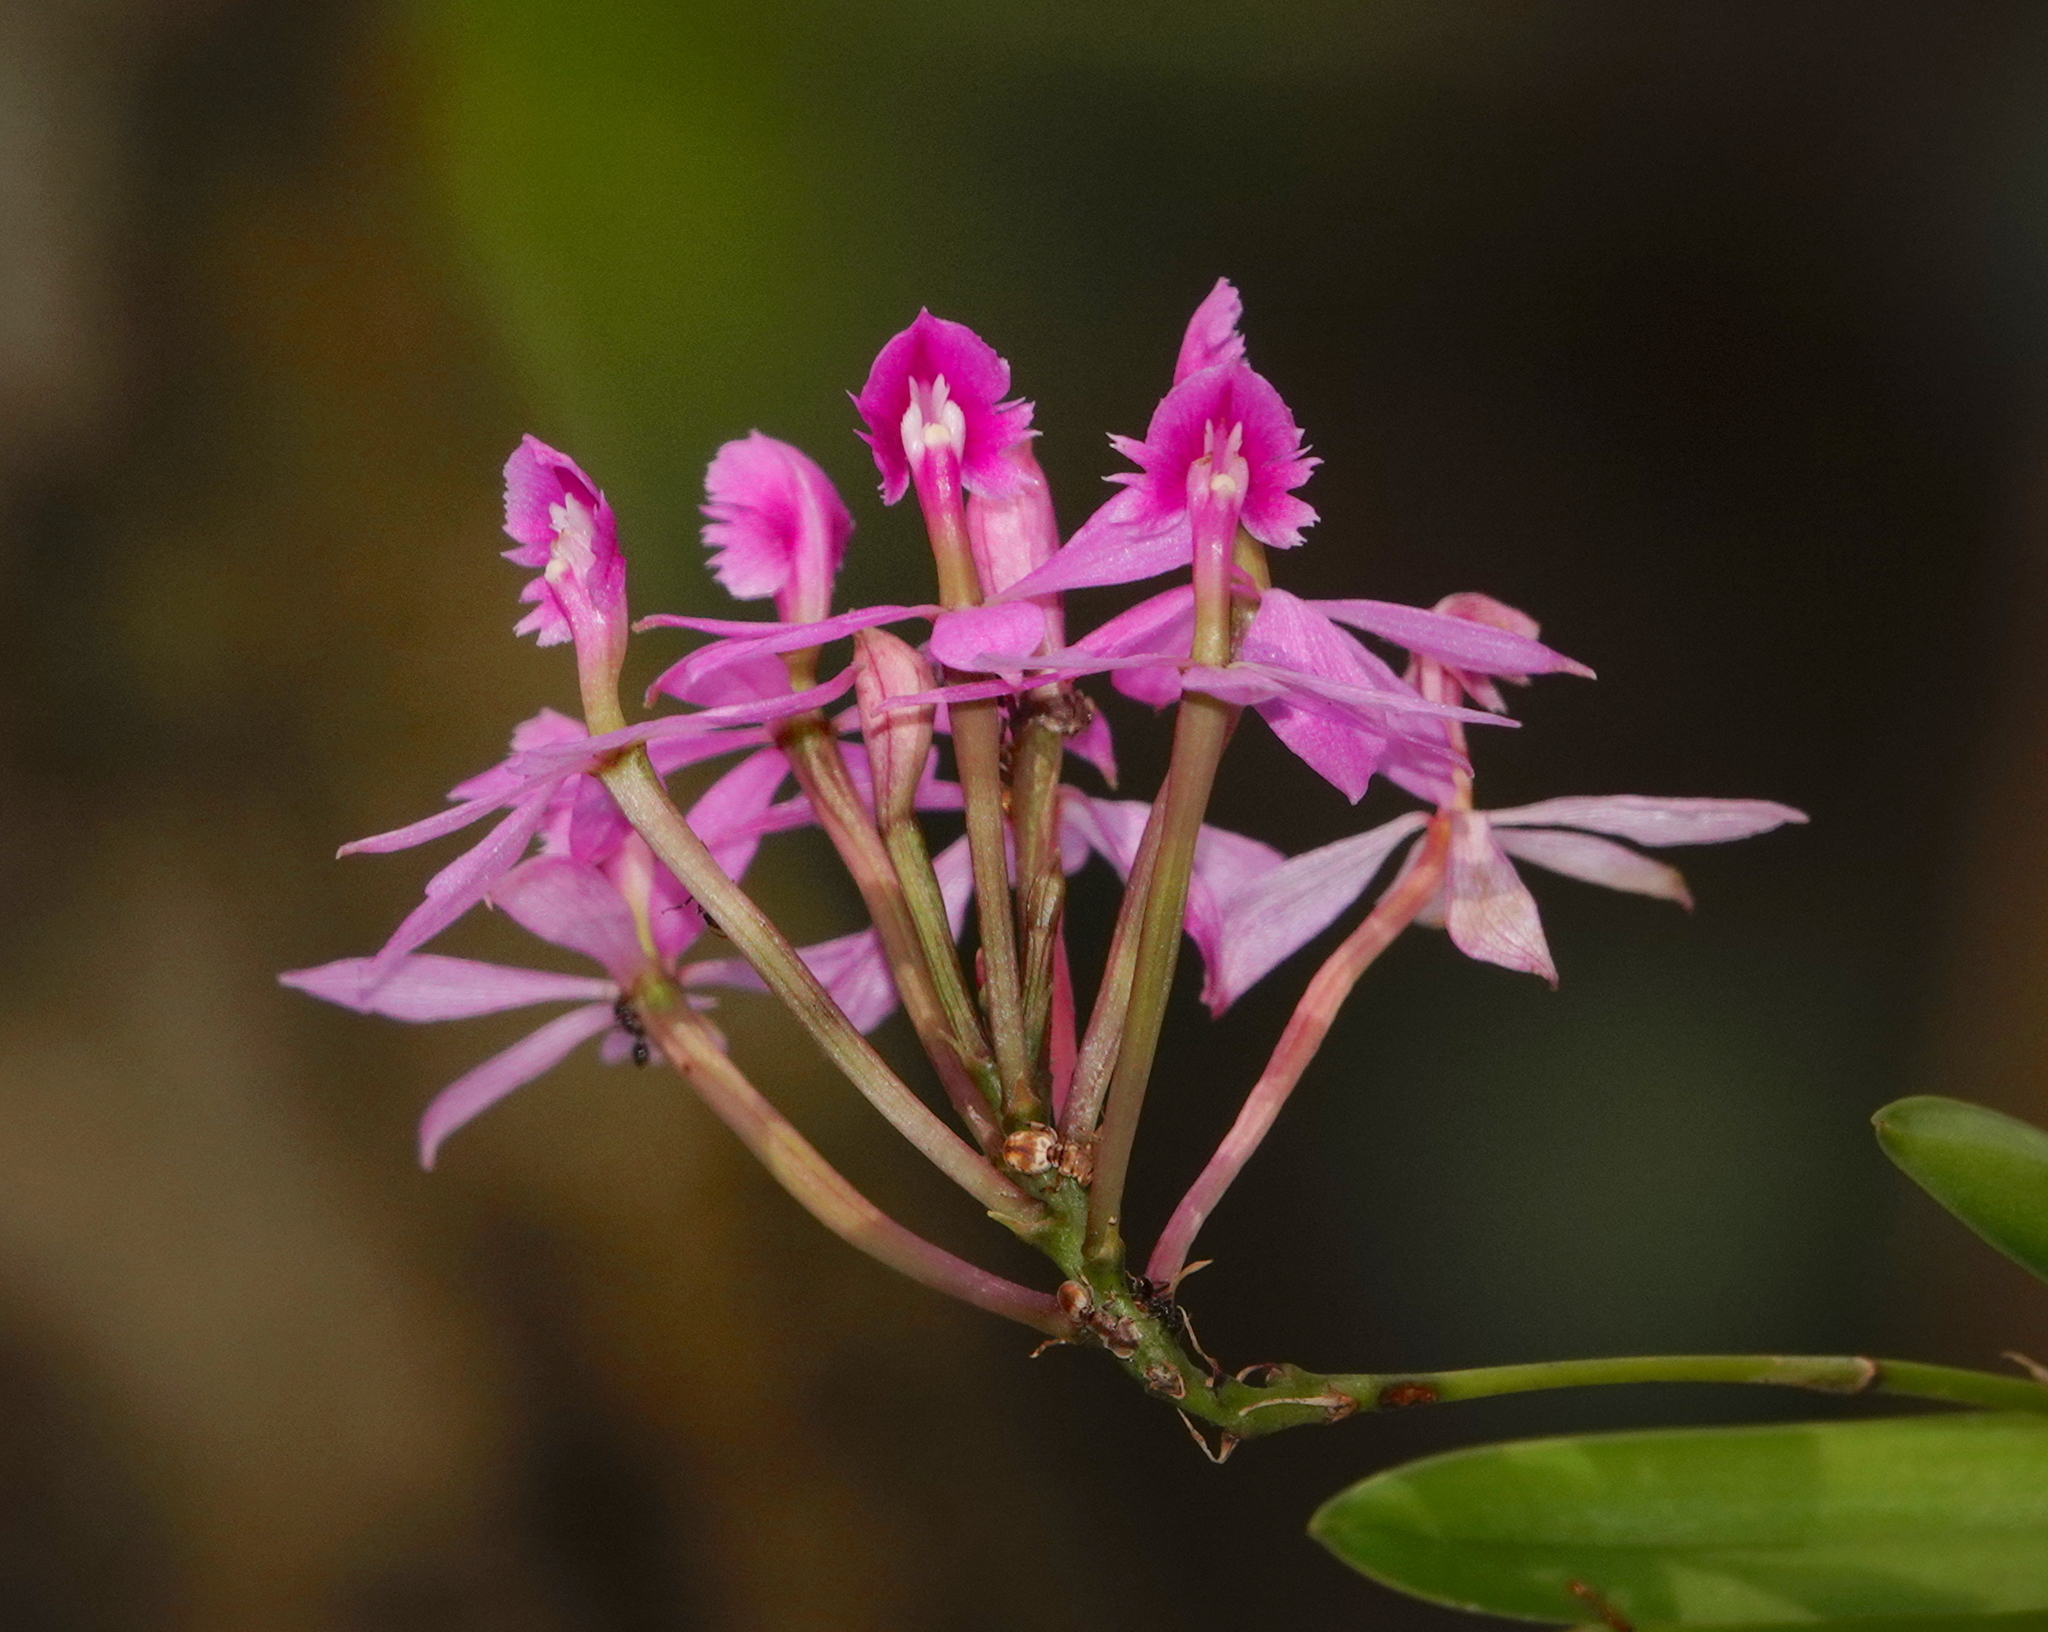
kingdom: Plantae
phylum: Tracheophyta
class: Liliopsida
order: Asparagales
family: Orchidaceae
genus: Epidendrum
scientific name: Epidendrum flexuosum
